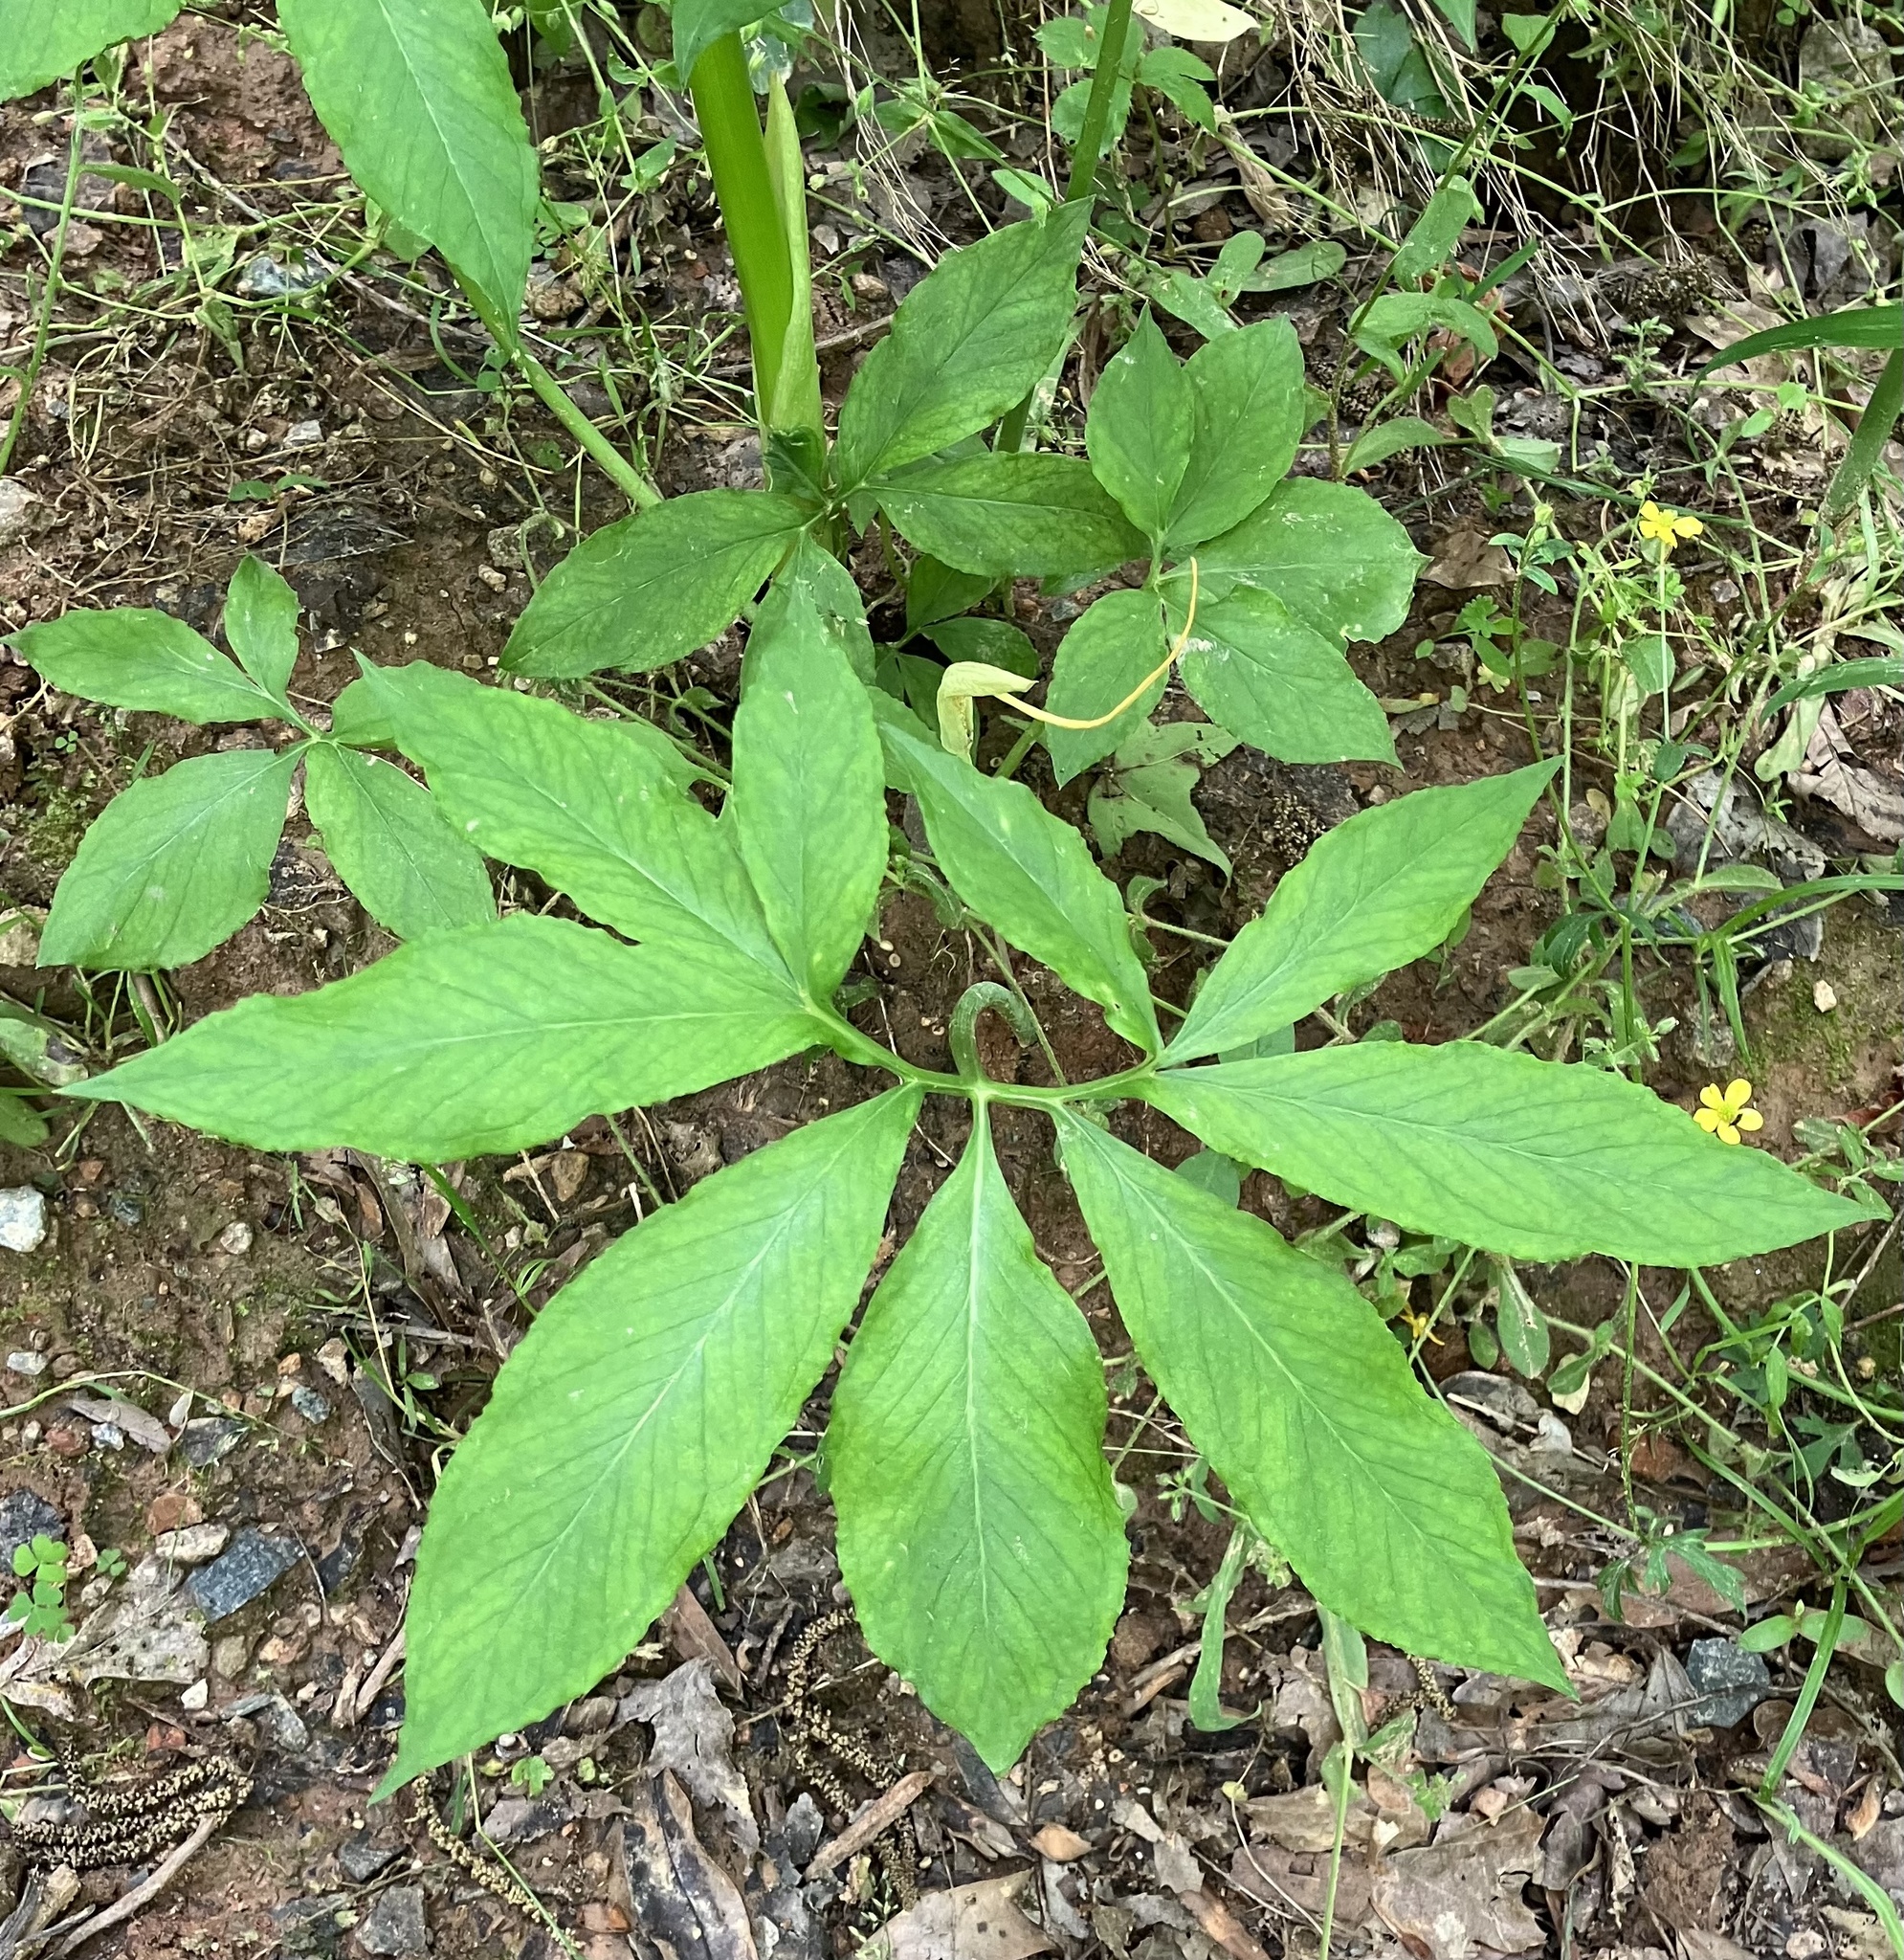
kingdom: Plantae
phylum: Tracheophyta
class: Liliopsida
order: Alismatales
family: Araceae
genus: Arisaema
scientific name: Arisaema dracontium
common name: Dragon-arum
